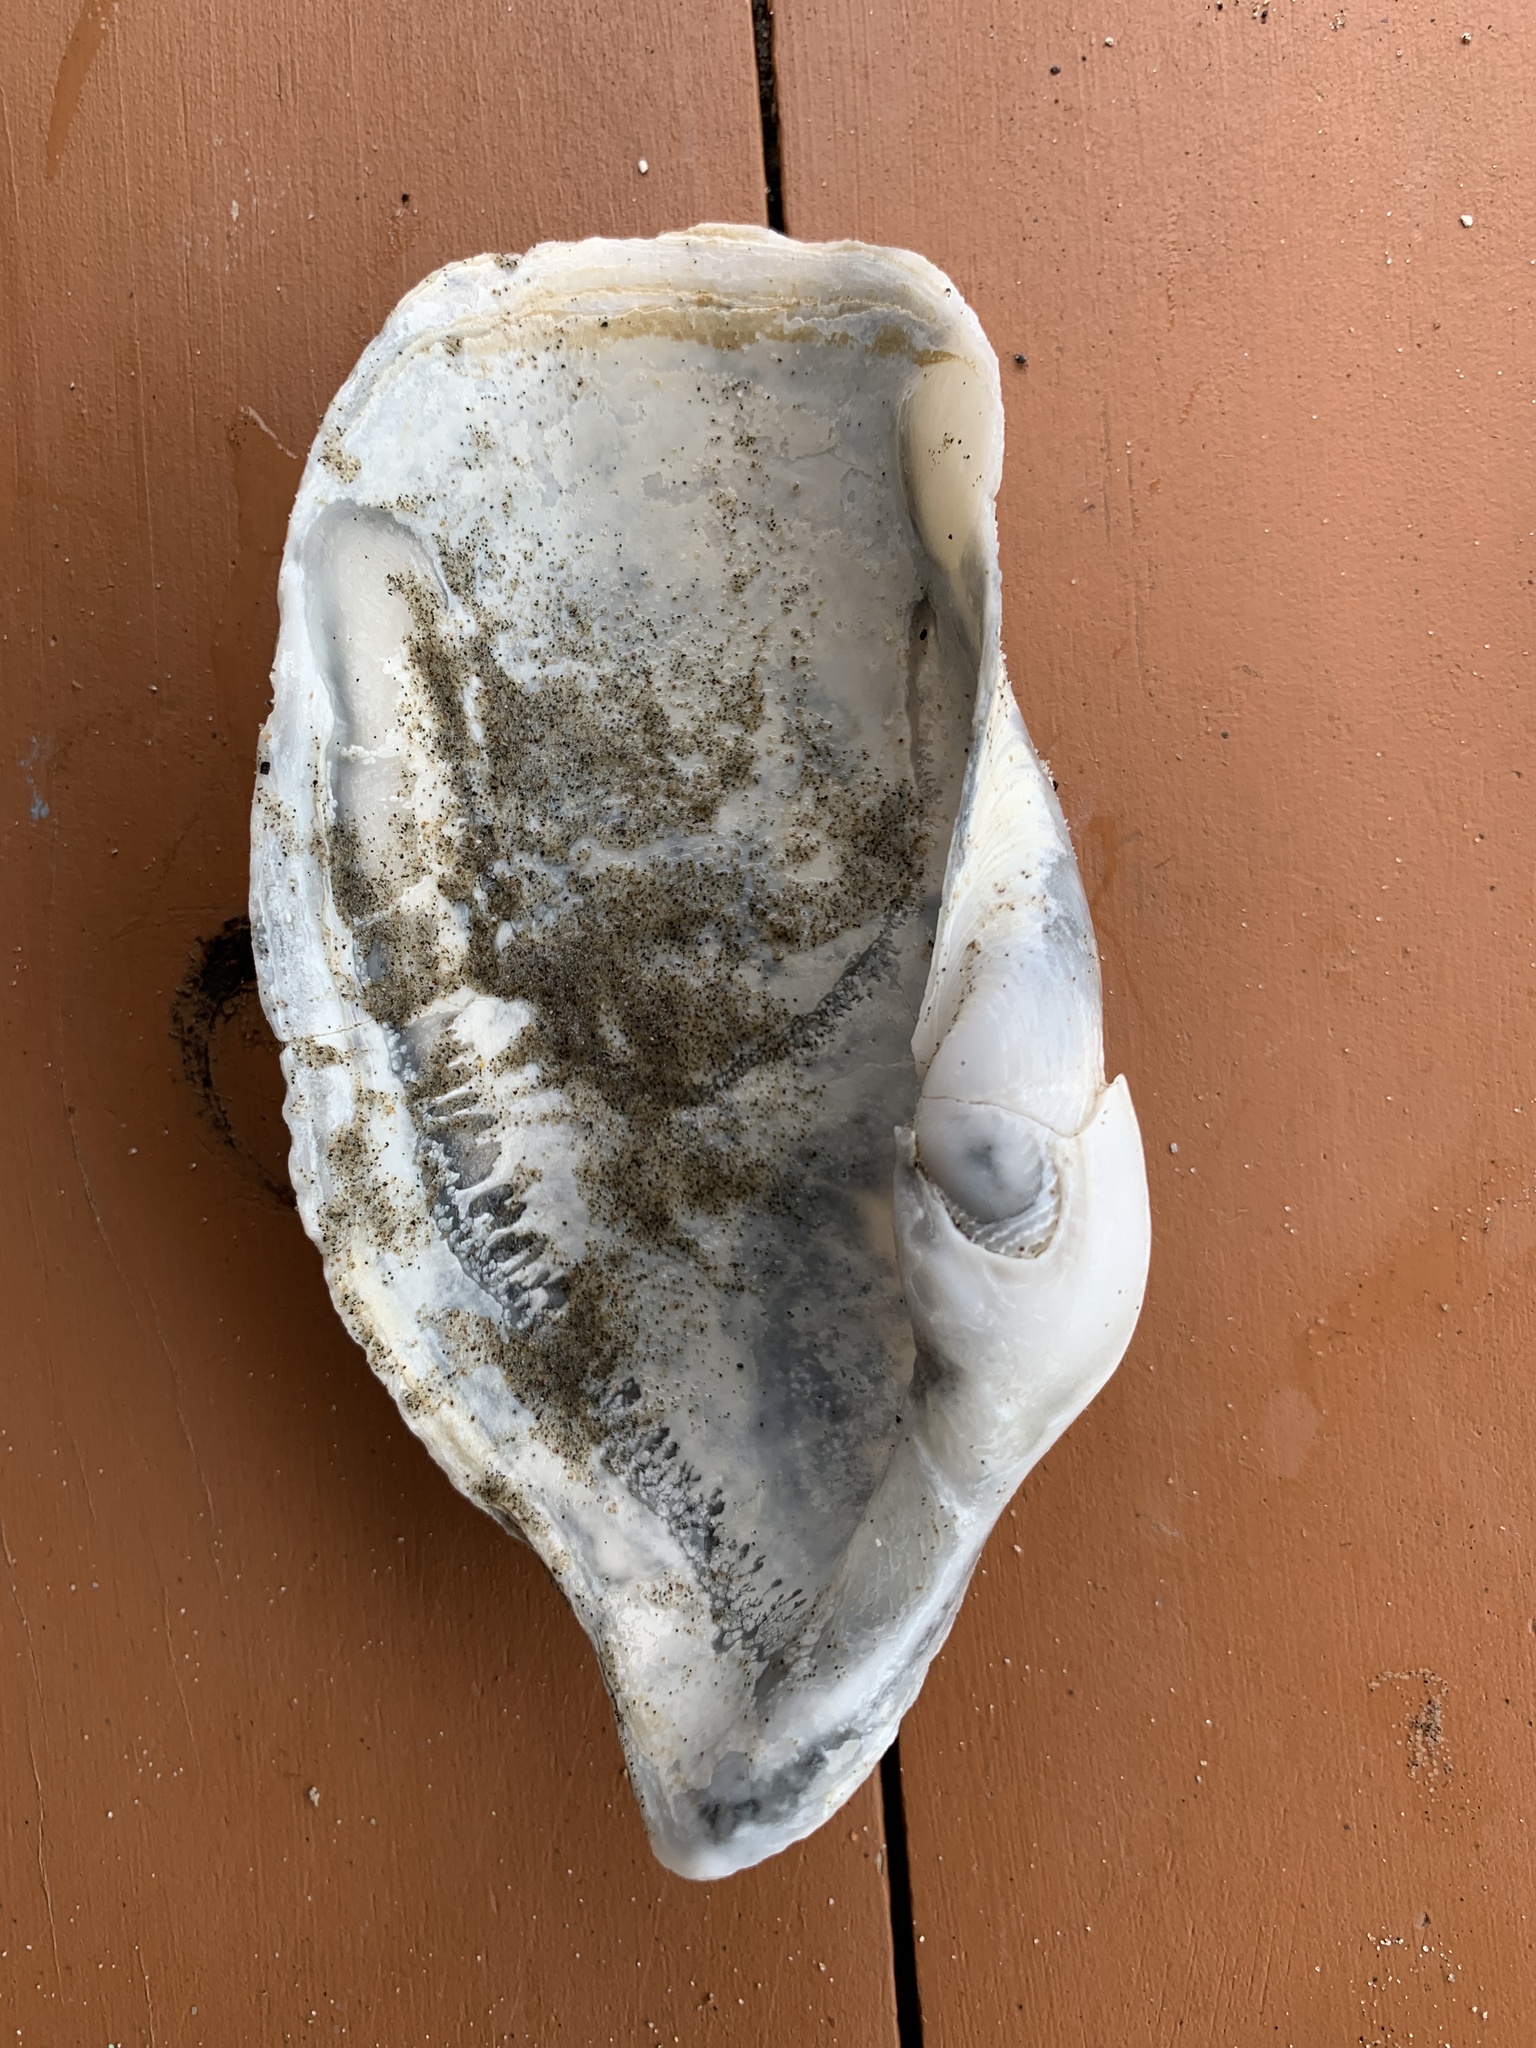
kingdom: Animalia
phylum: Mollusca
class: Bivalvia
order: Myida
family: Pholadidae
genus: Zirfaea
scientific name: Zirfaea pilsbryi
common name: Rough piddock
